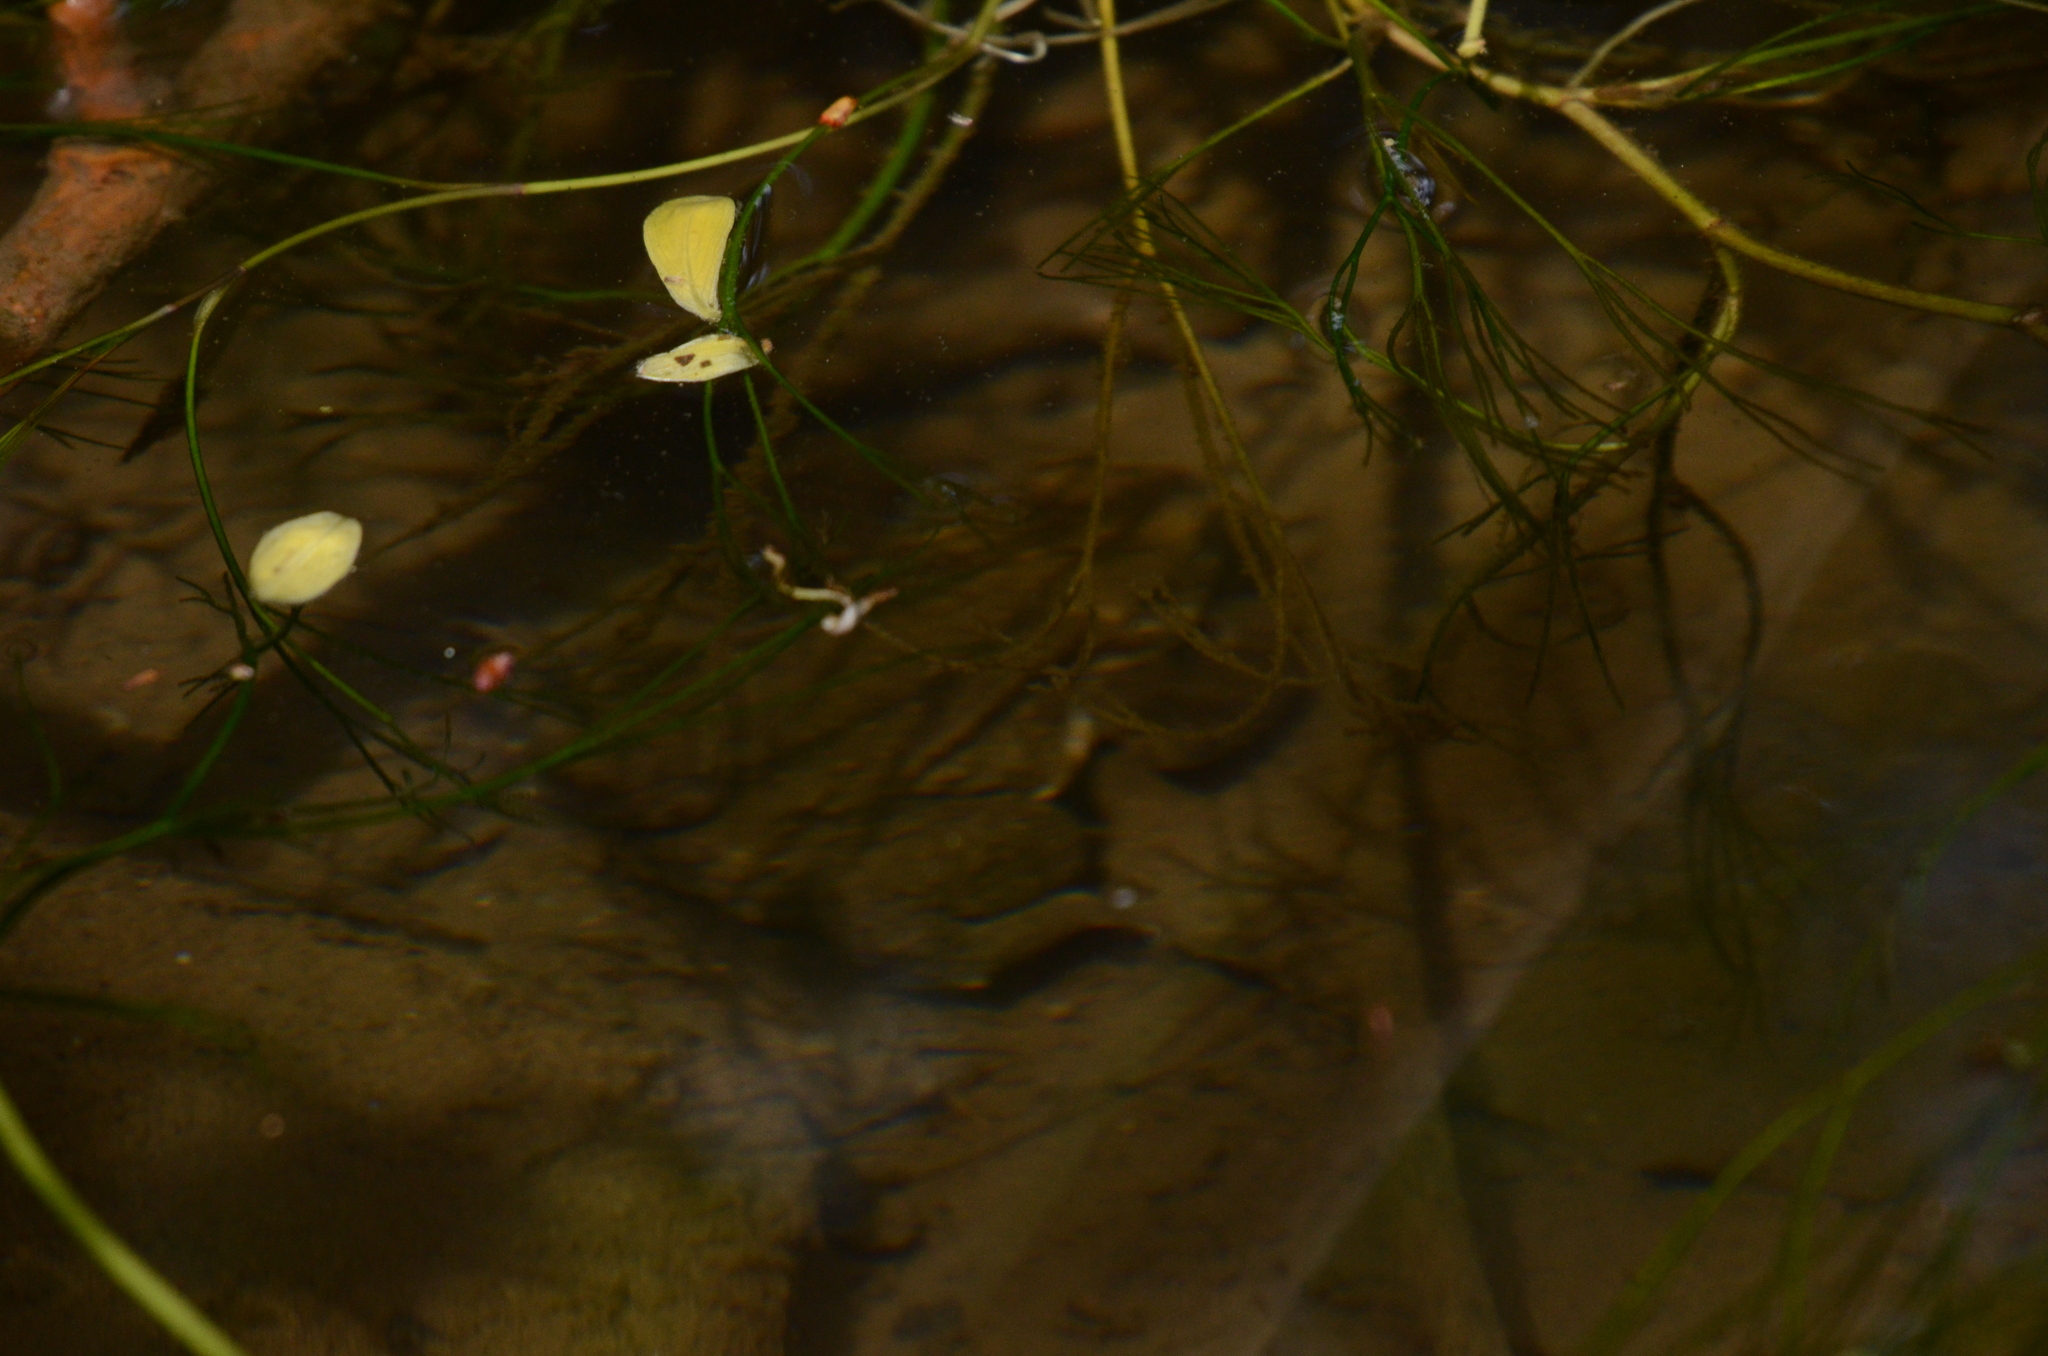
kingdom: Animalia
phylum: Chordata
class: Amphibia
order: Anura
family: Bufonidae
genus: Bufo
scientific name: Bufo bufo
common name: Common toad
